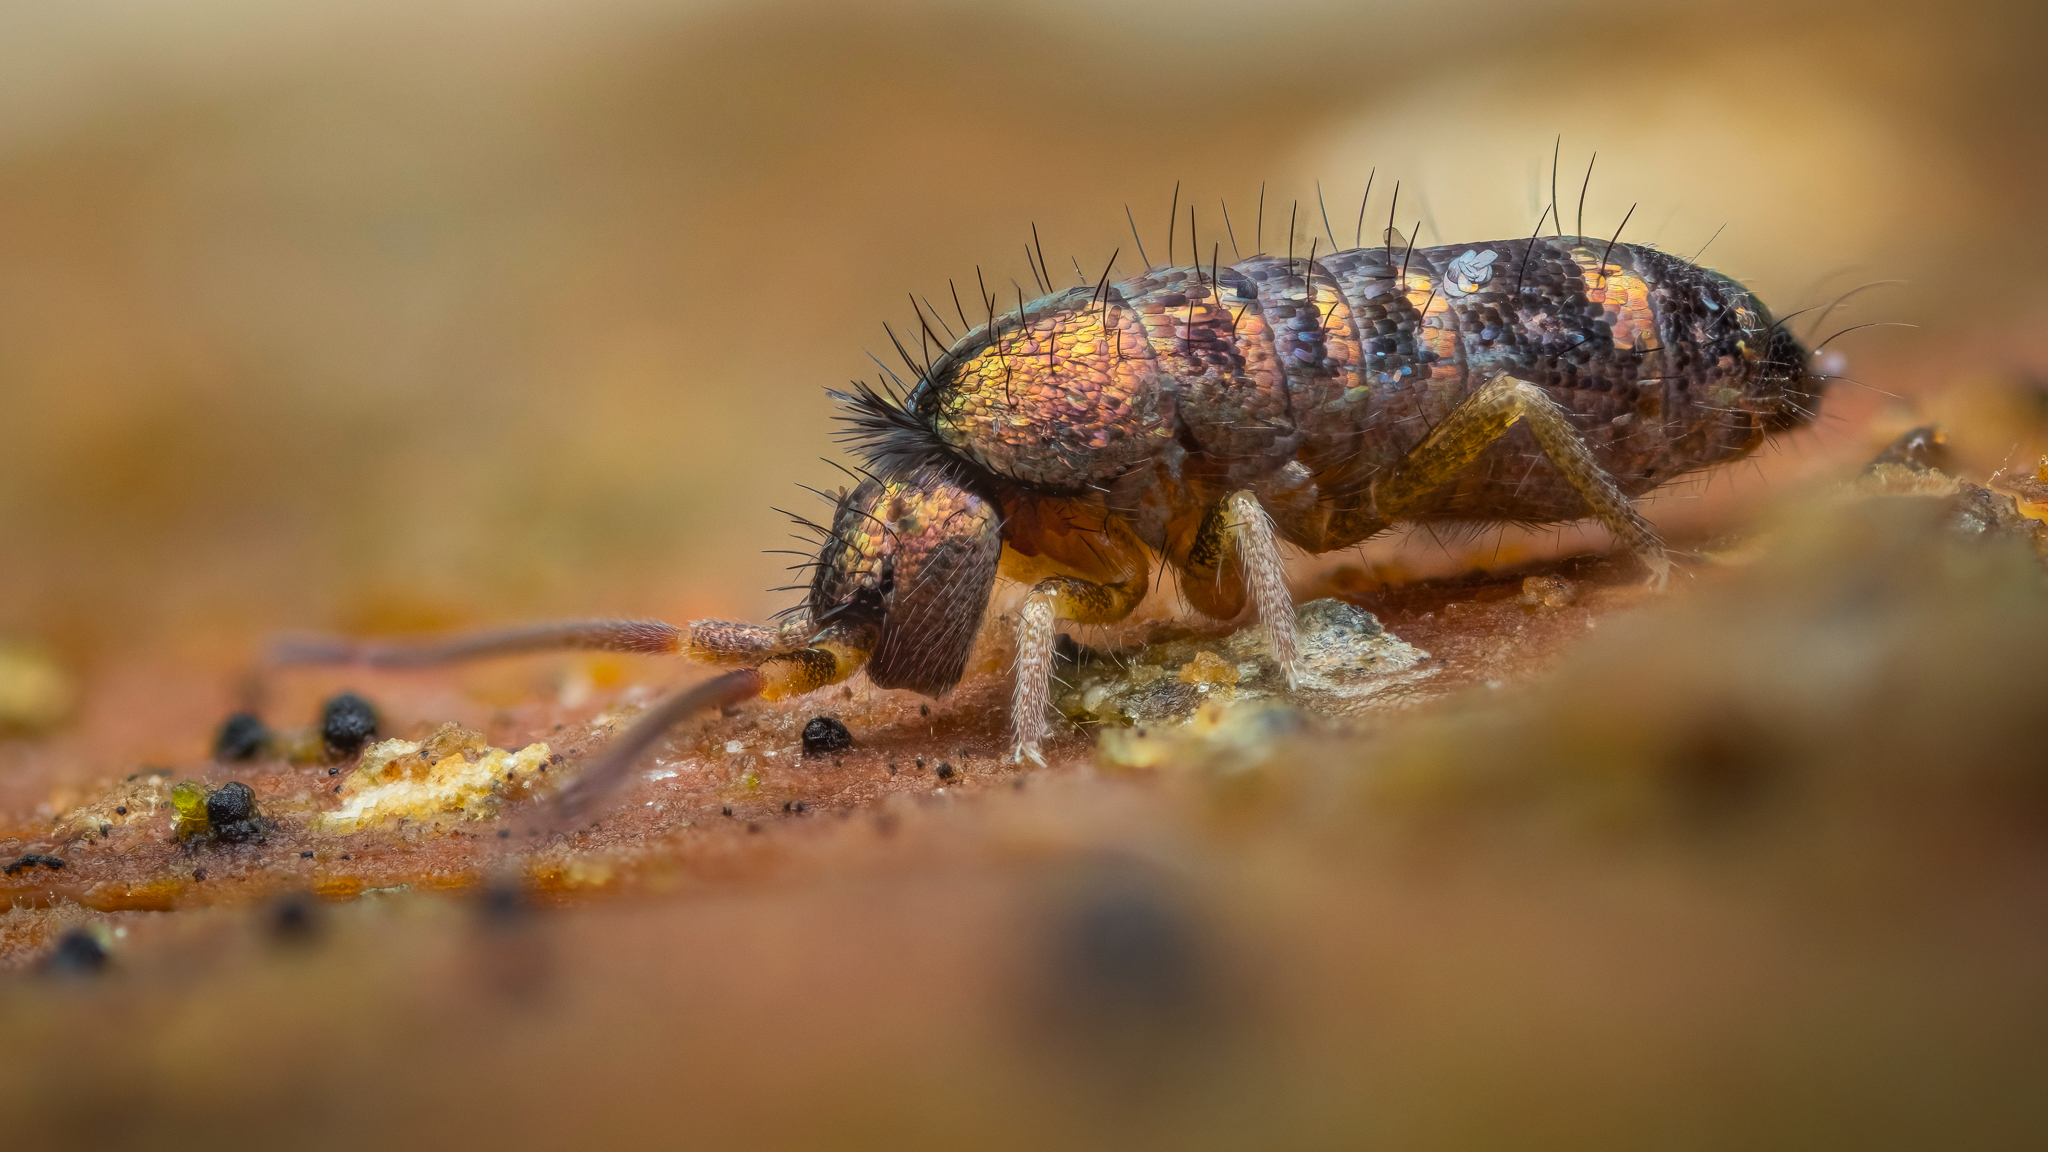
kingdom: Animalia
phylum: Arthropoda
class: Collembola
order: Entomobryomorpha
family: Tomoceridae
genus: Tomocerus
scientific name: Tomocerus vulgaris
